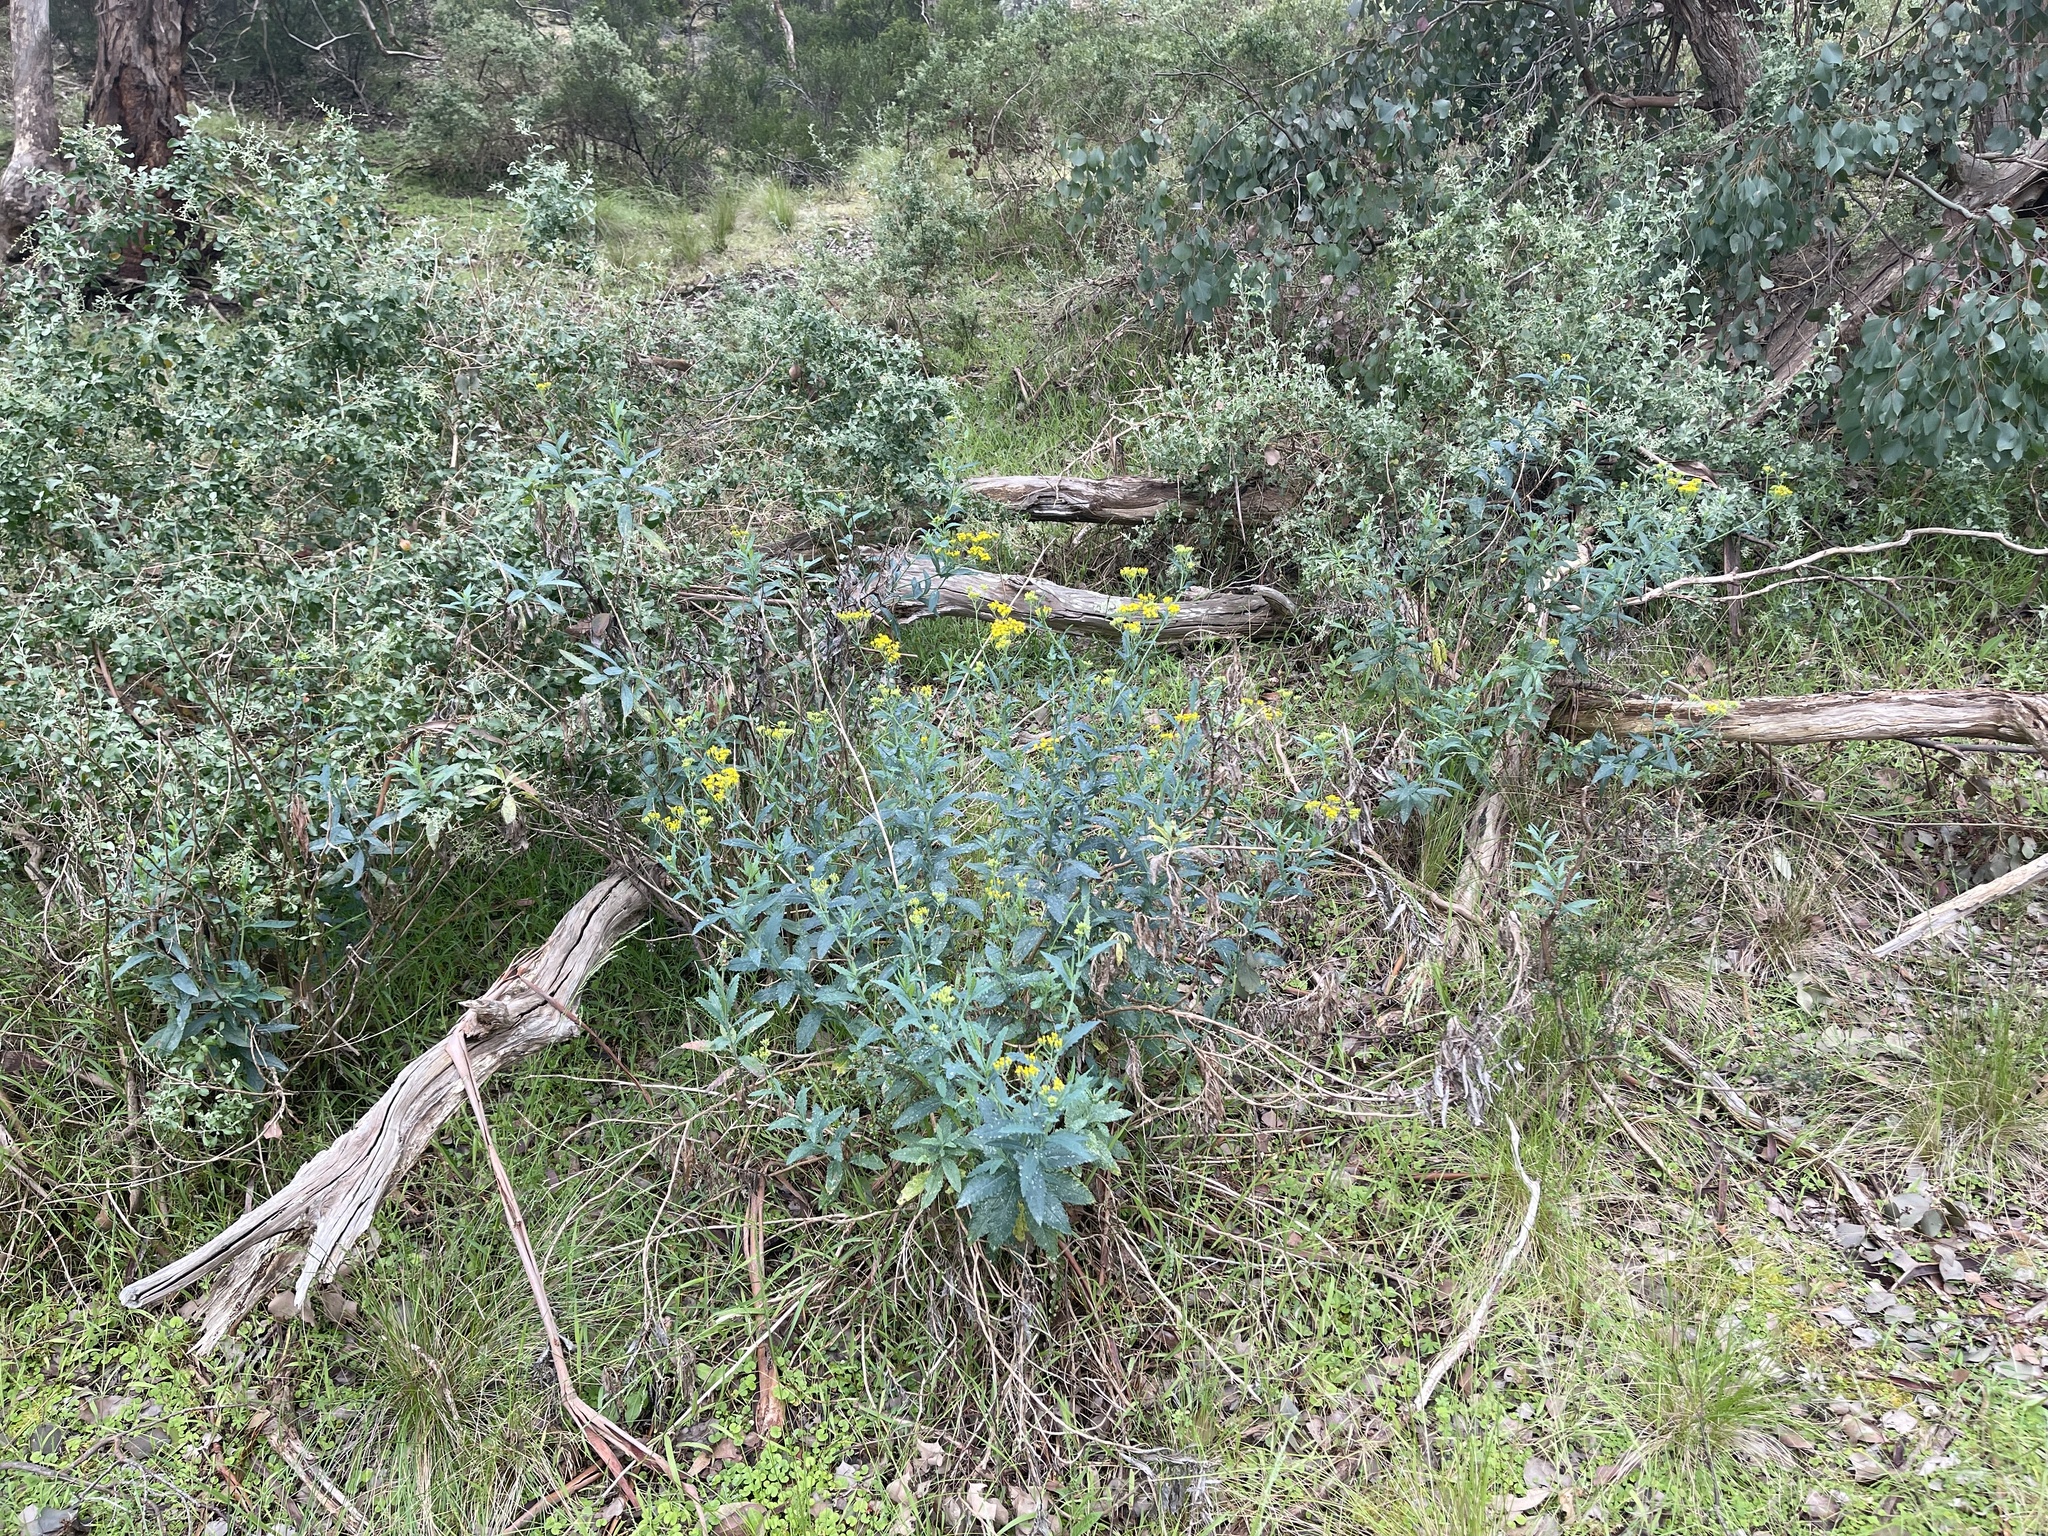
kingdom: Plantae
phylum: Tracheophyta
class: Magnoliopsida
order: Asterales
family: Asteraceae
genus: Senecio
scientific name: Senecio odoratus
